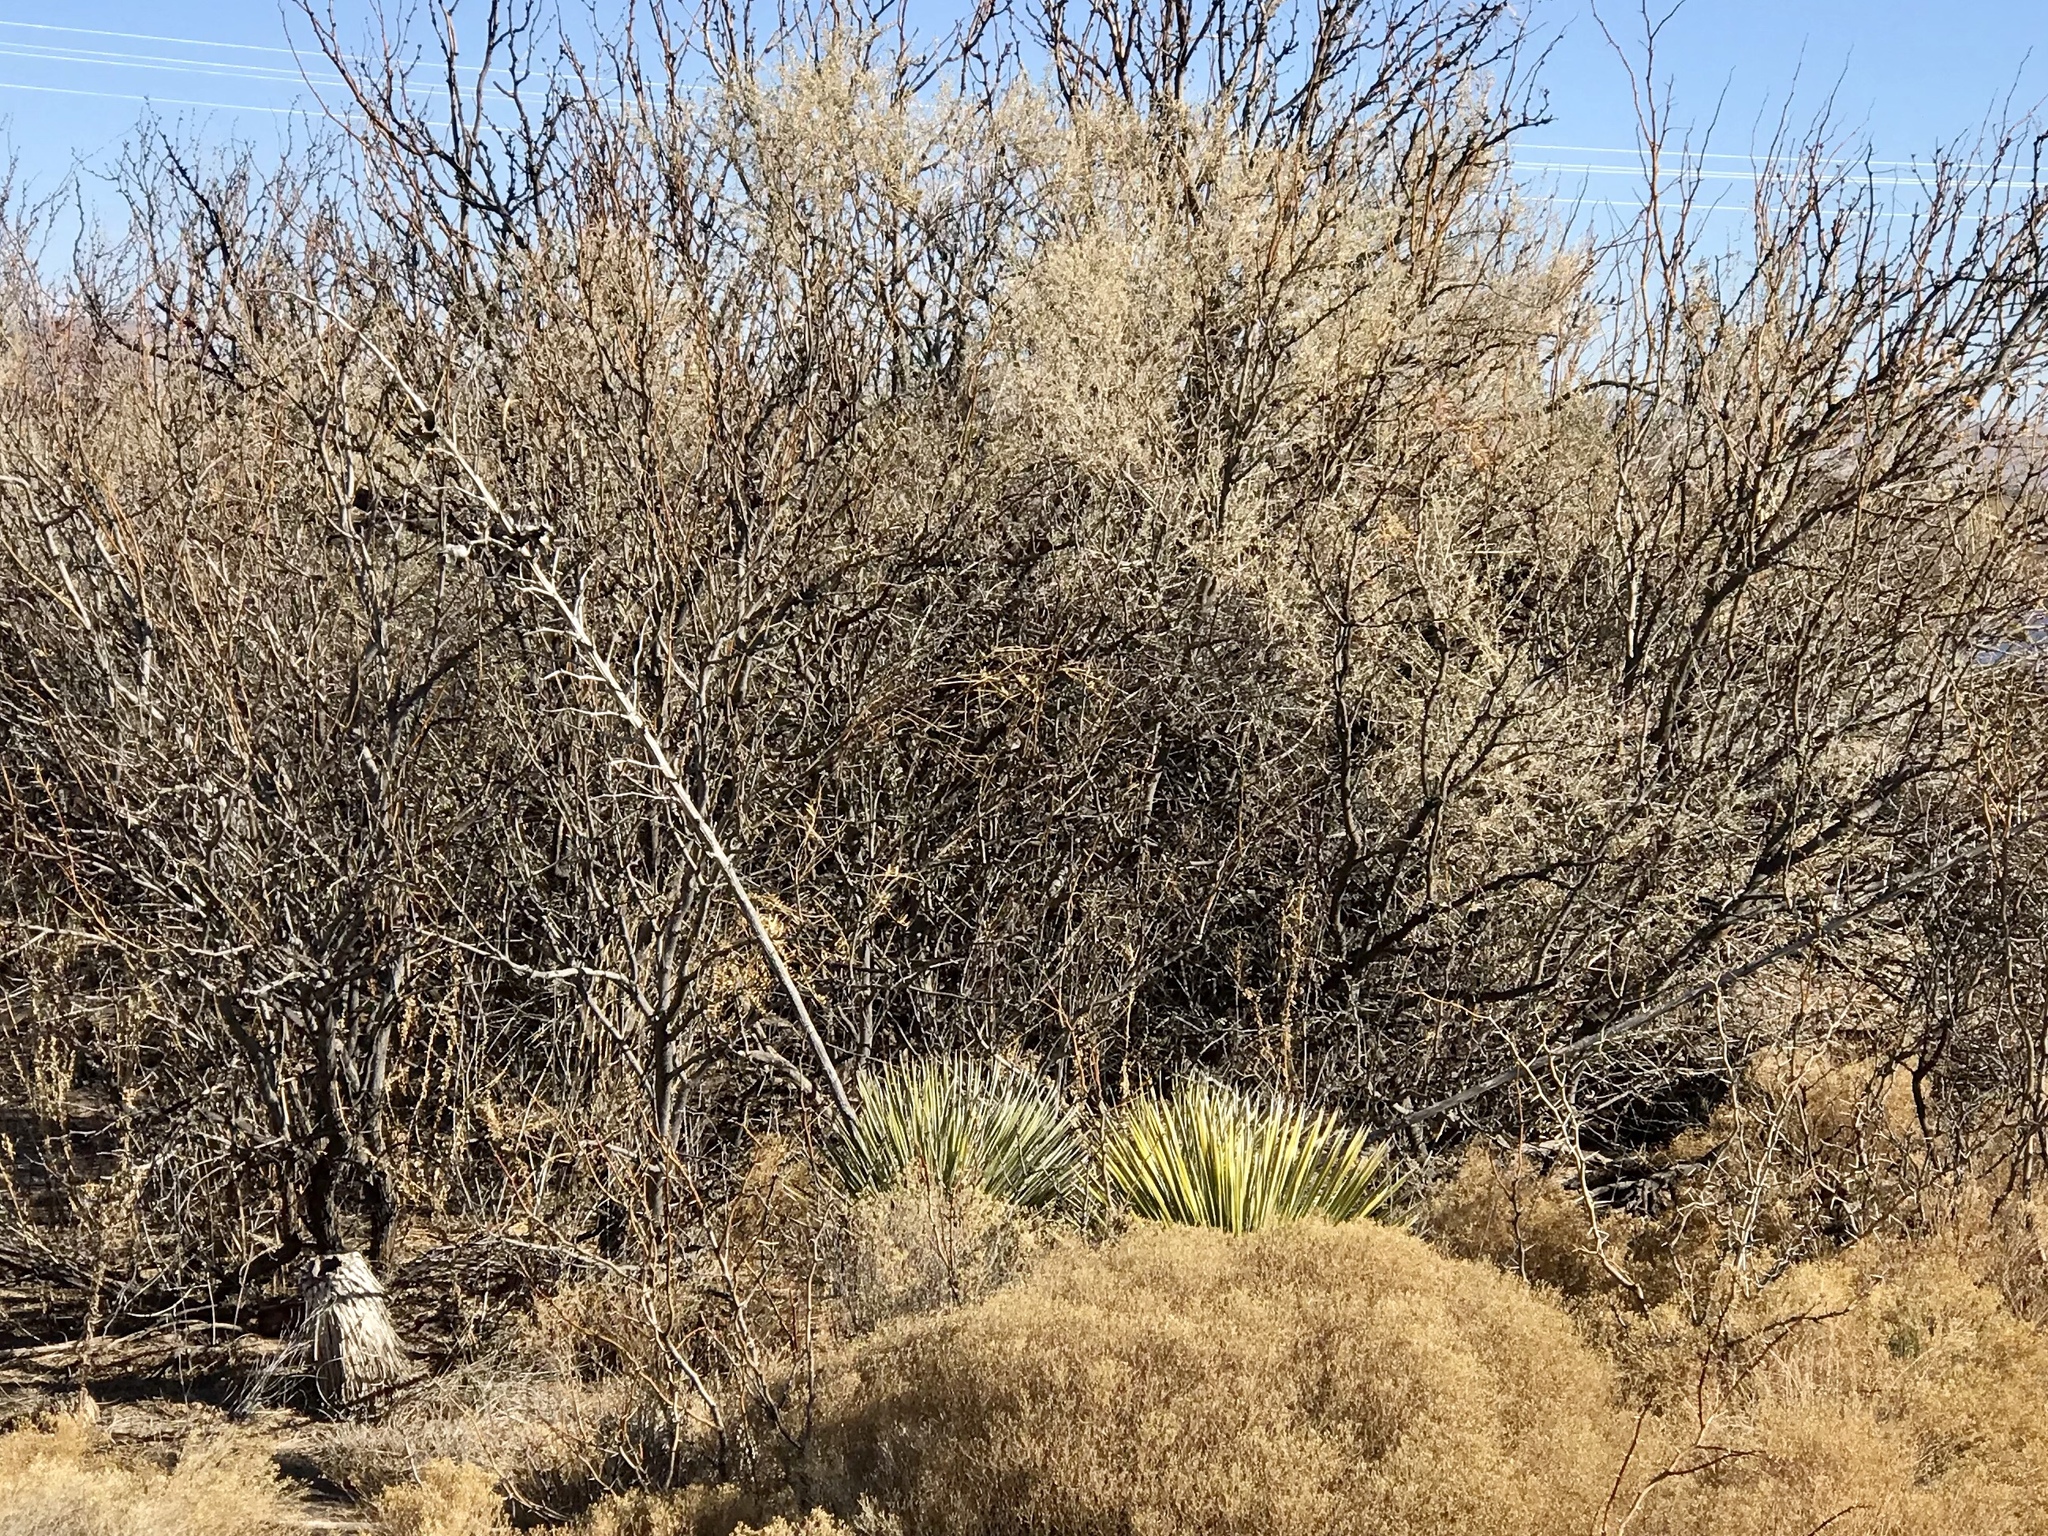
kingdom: Plantae
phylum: Tracheophyta
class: Liliopsida
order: Asparagales
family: Asparagaceae
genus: Yucca
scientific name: Yucca elata
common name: Palmella
